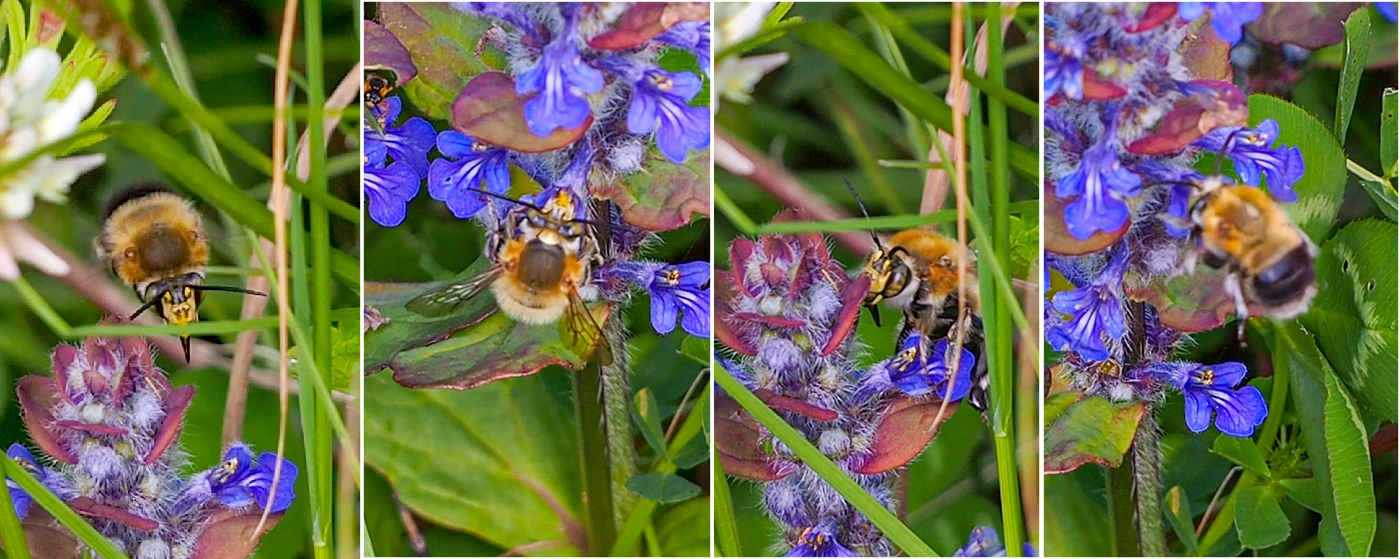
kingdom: Animalia
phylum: Arthropoda
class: Insecta
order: Hymenoptera
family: Apidae
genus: Habropoda
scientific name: Habropoda tarsata
